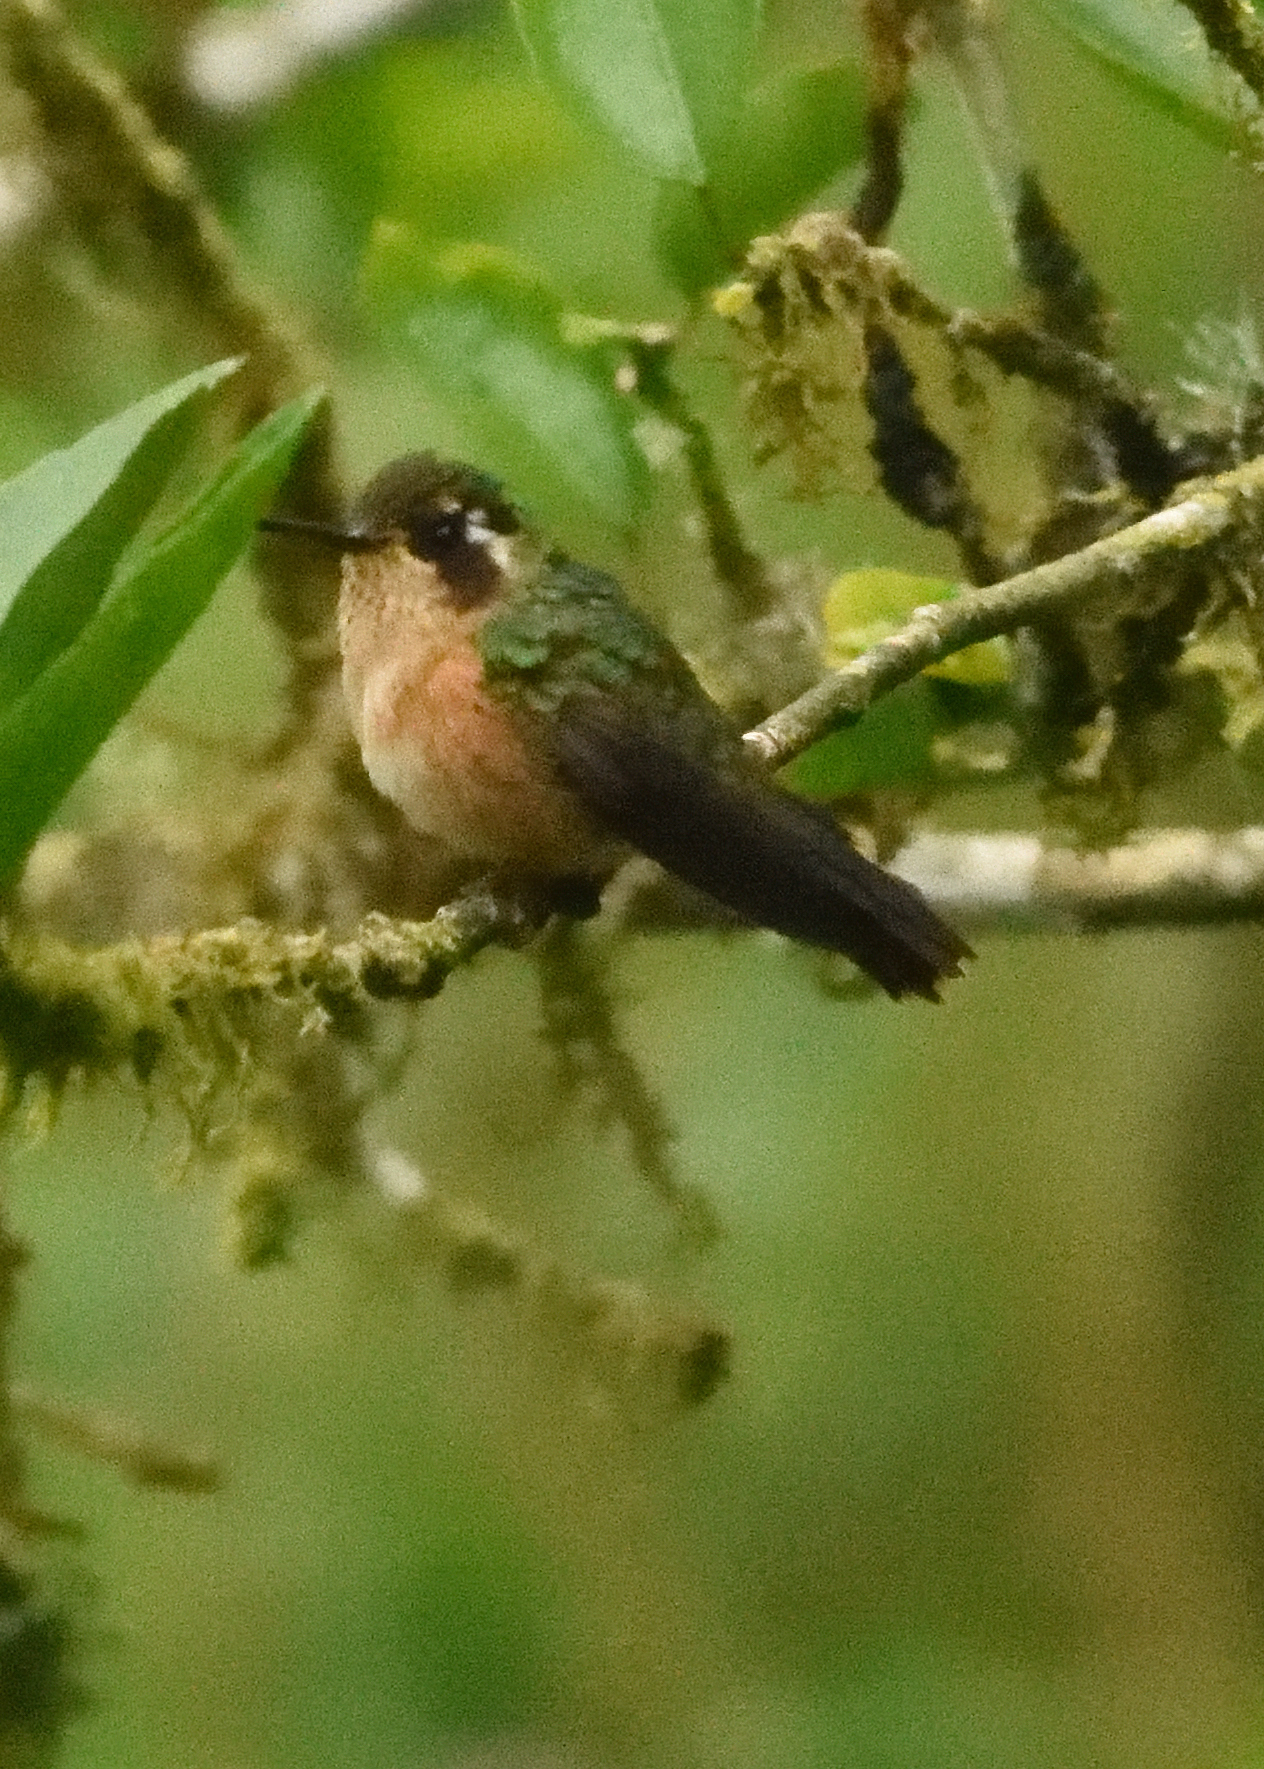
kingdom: Animalia
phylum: Chordata
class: Aves
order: Apodiformes
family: Trochilidae
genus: Adelomyia
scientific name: Adelomyia melanogenys
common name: Speckled hummingbird
